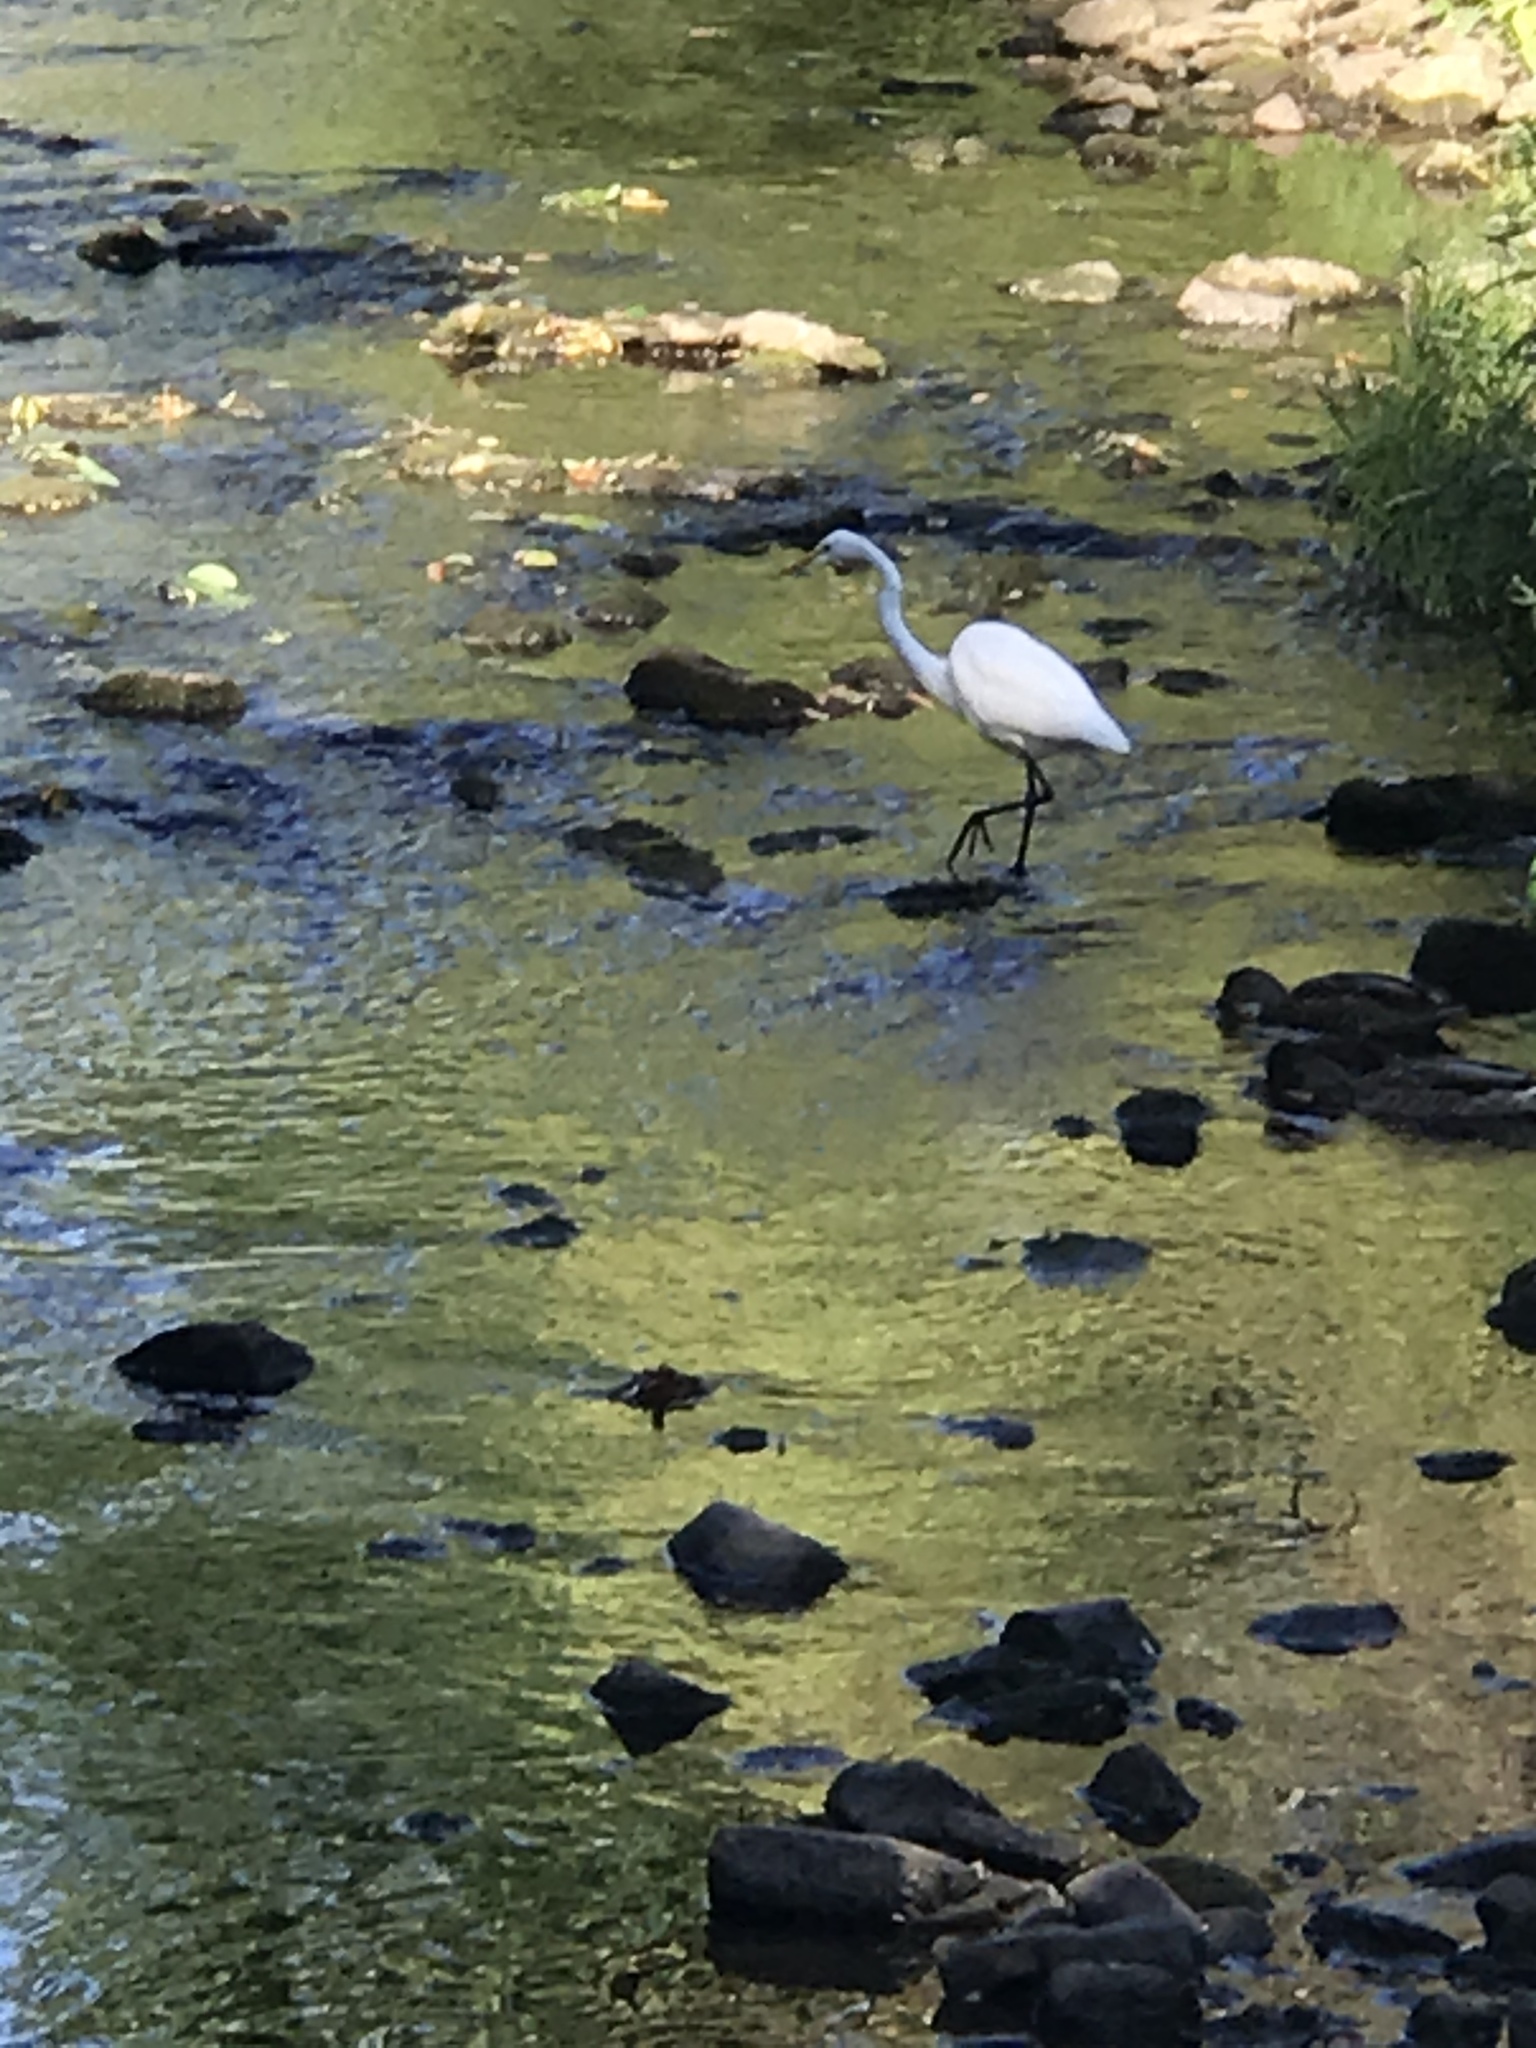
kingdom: Animalia
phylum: Chordata
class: Aves
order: Pelecaniformes
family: Ardeidae
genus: Ardea
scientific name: Ardea alba
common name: Great egret
